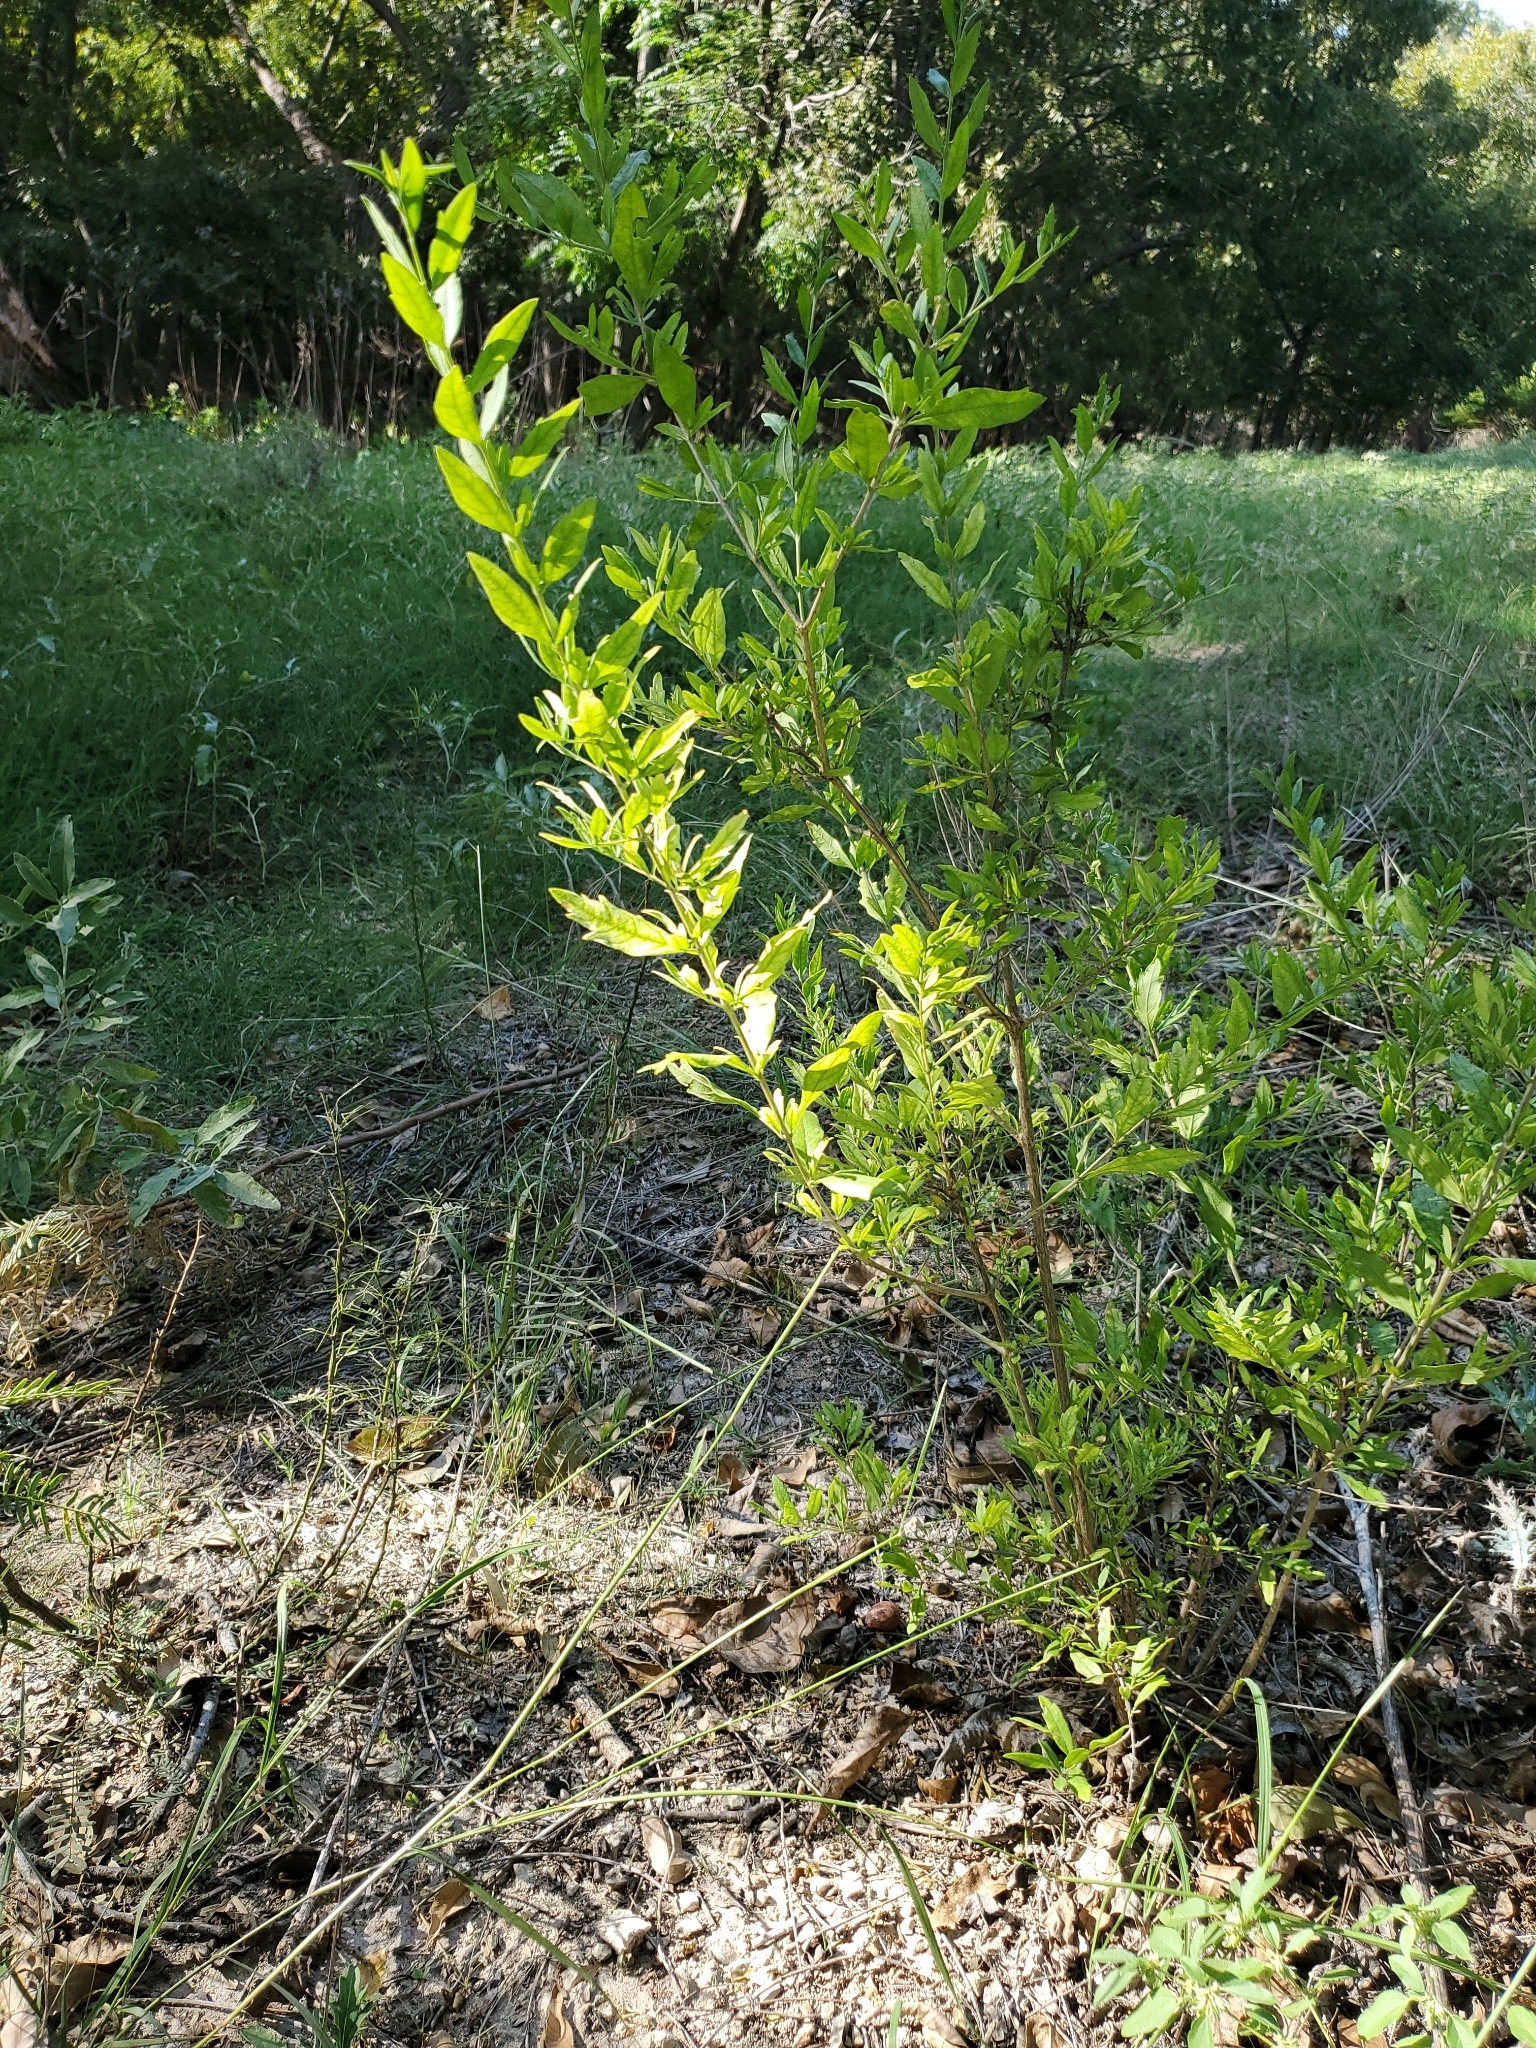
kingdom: Plantae
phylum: Tracheophyta
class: Magnoliopsida
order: Lamiales
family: Verbenaceae
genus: Aloysia
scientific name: Aloysia gratissima
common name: Common bee-brush
